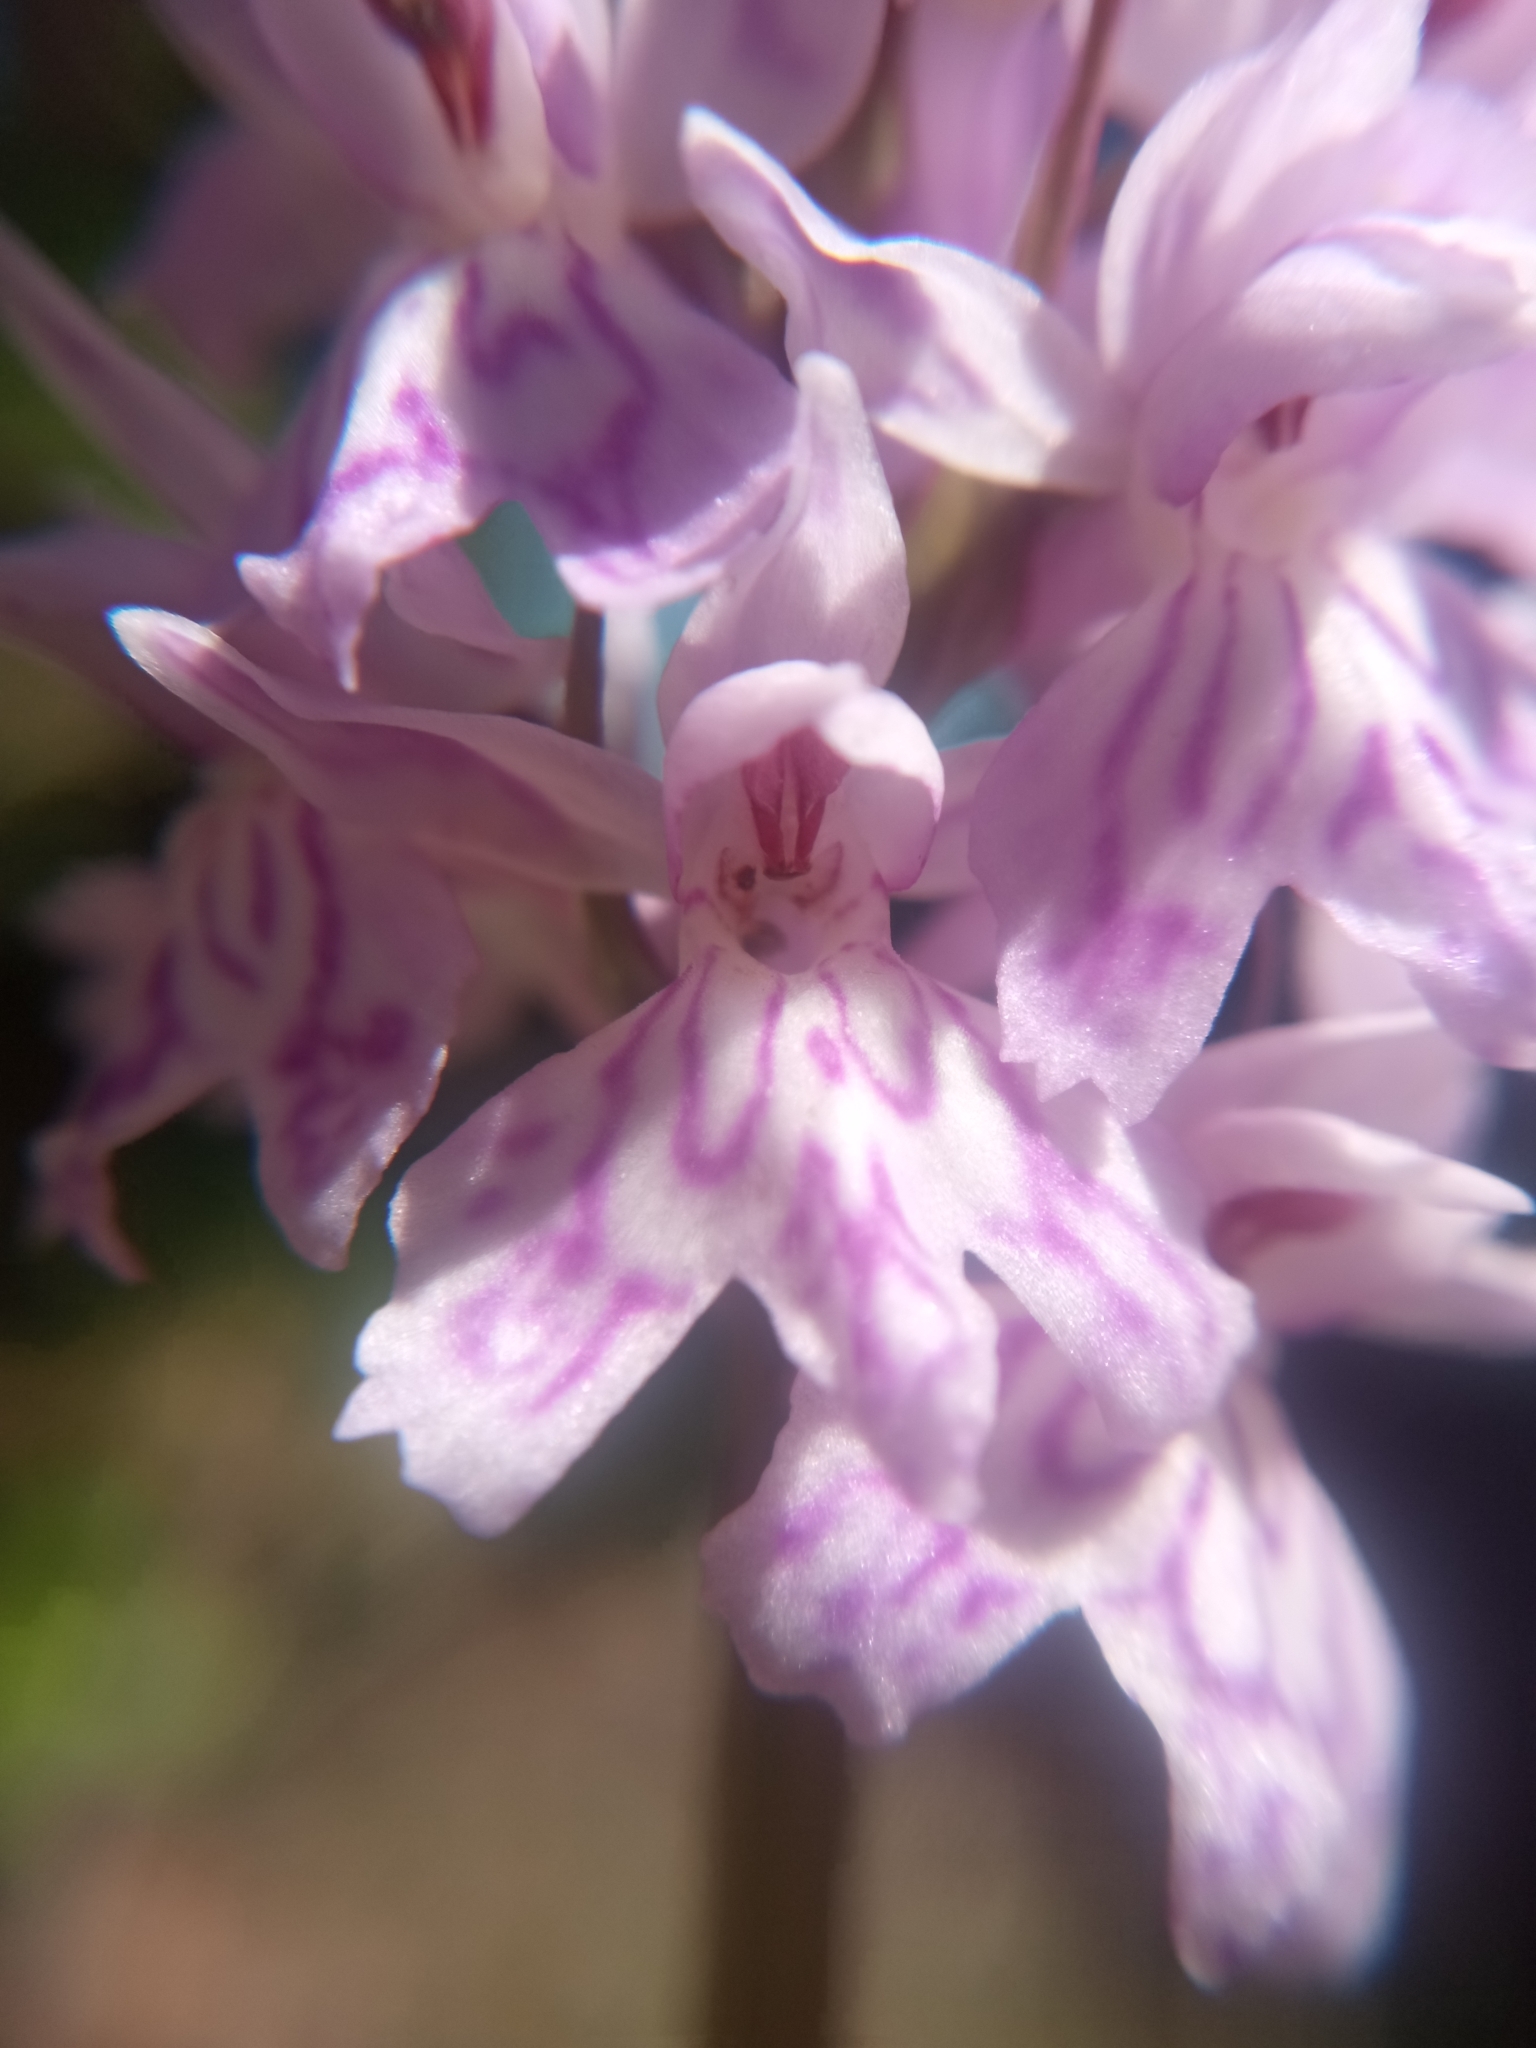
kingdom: Plantae
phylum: Tracheophyta
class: Liliopsida
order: Asparagales
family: Orchidaceae
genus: Dactylorhiza
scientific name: Dactylorhiza maculata
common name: Heath spotted-orchid
